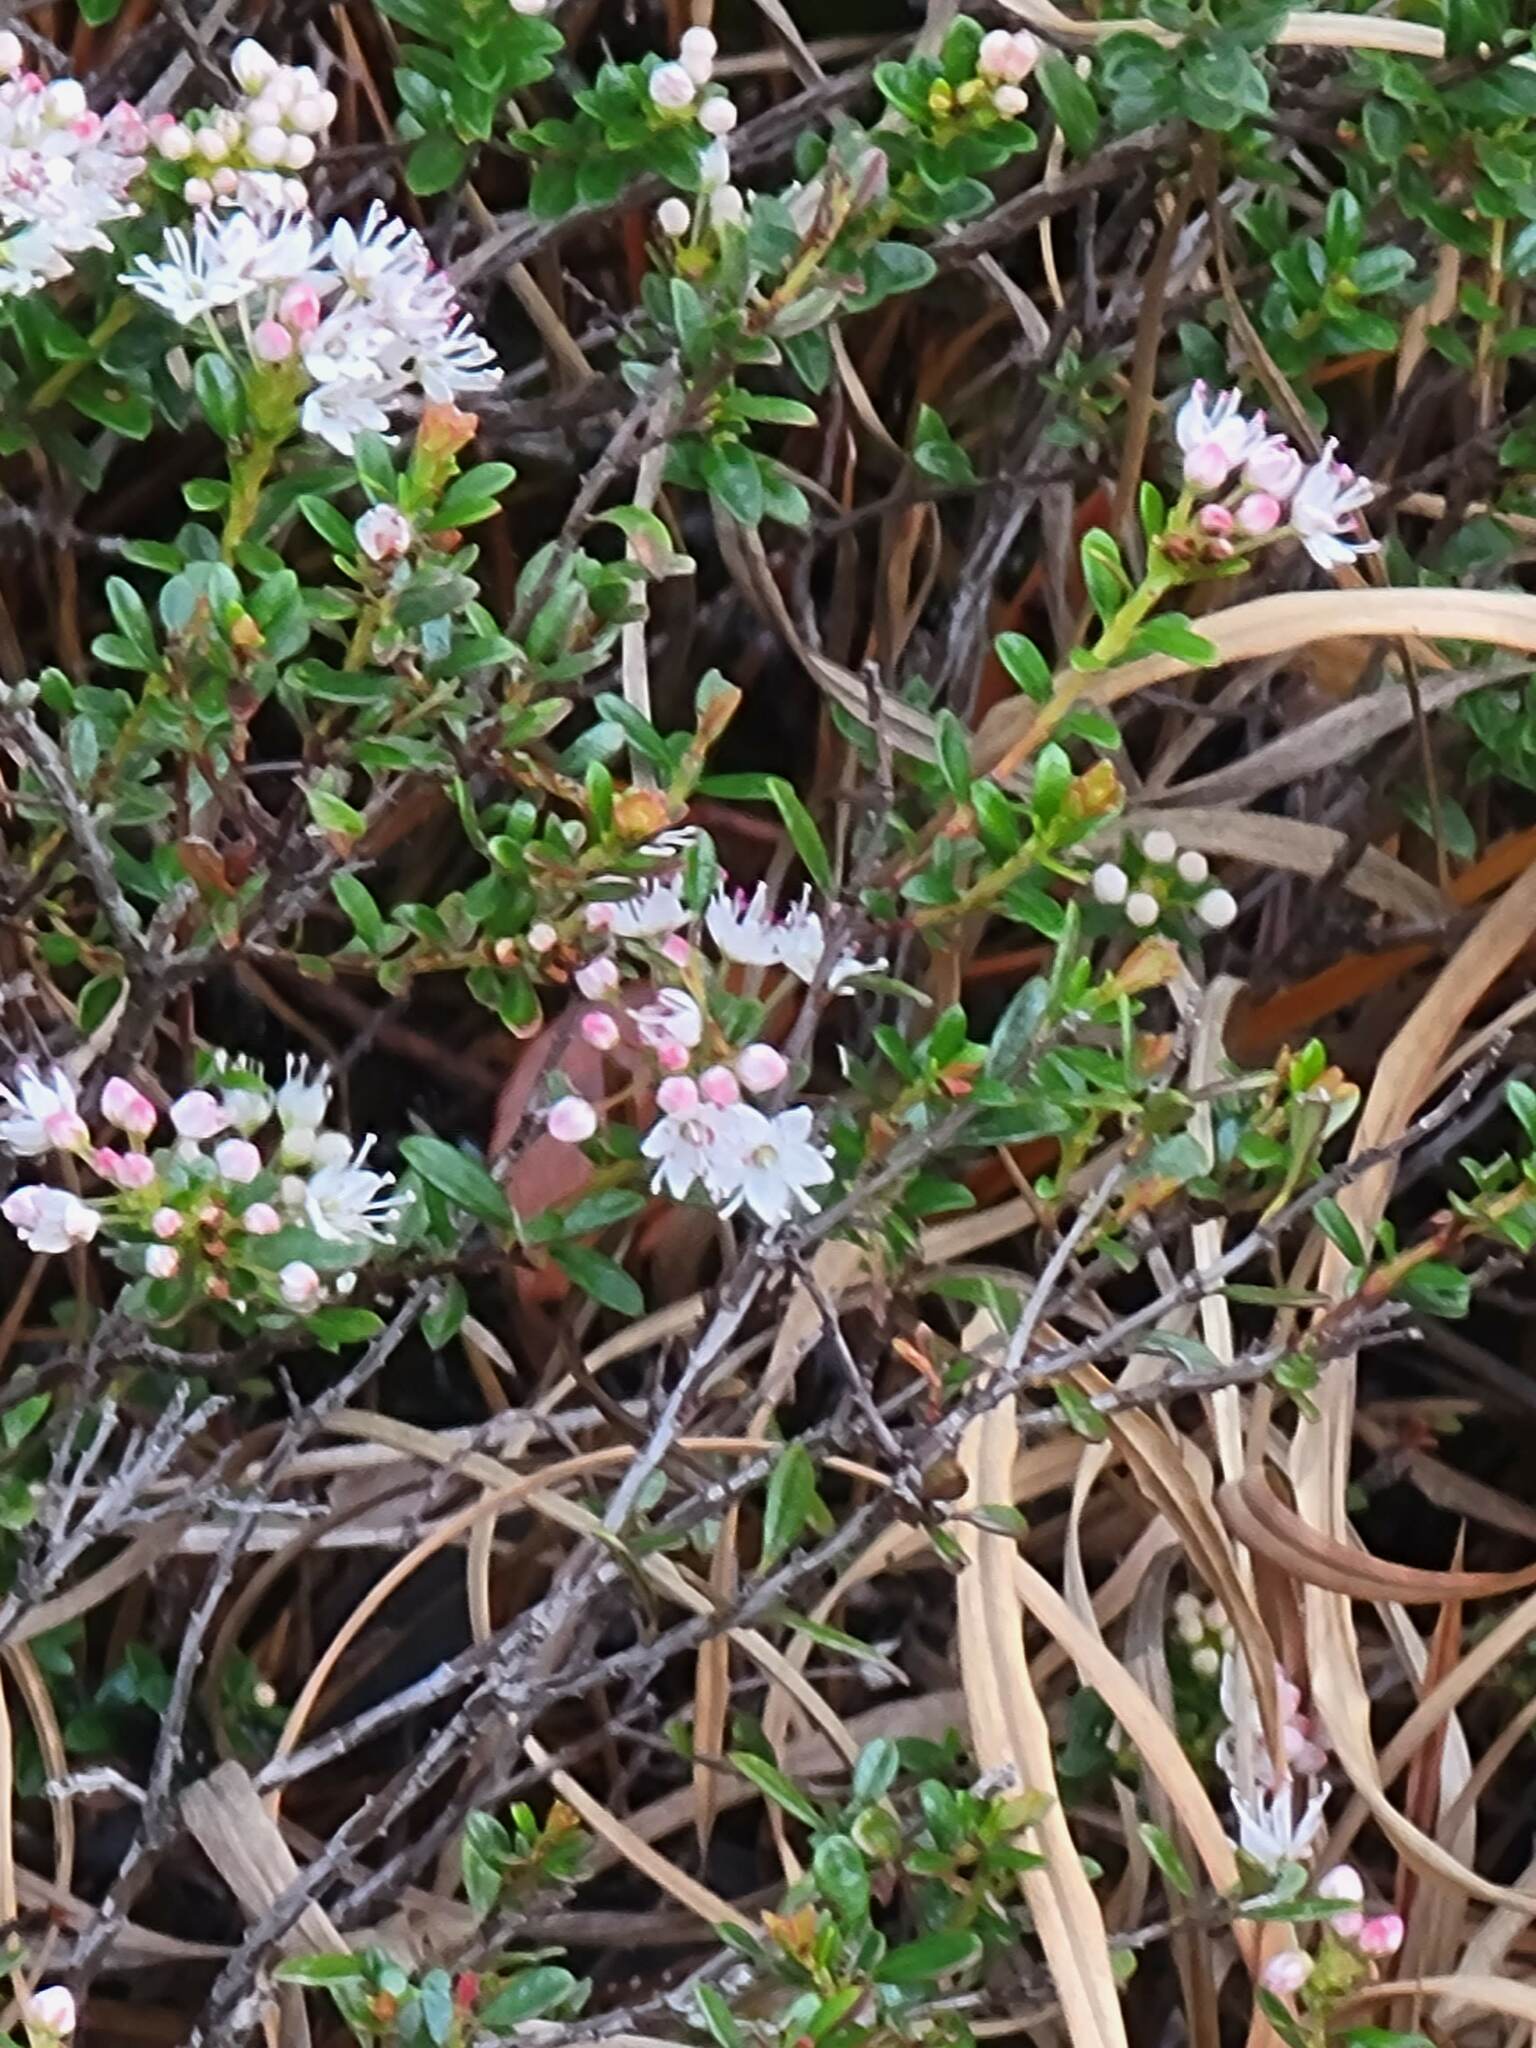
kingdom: Plantae
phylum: Tracheophyta
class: Magnoliopsida
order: Ericales
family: Ericaceae
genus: Kalmia
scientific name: Kalmia buxifolia
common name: Sandmyrtle
